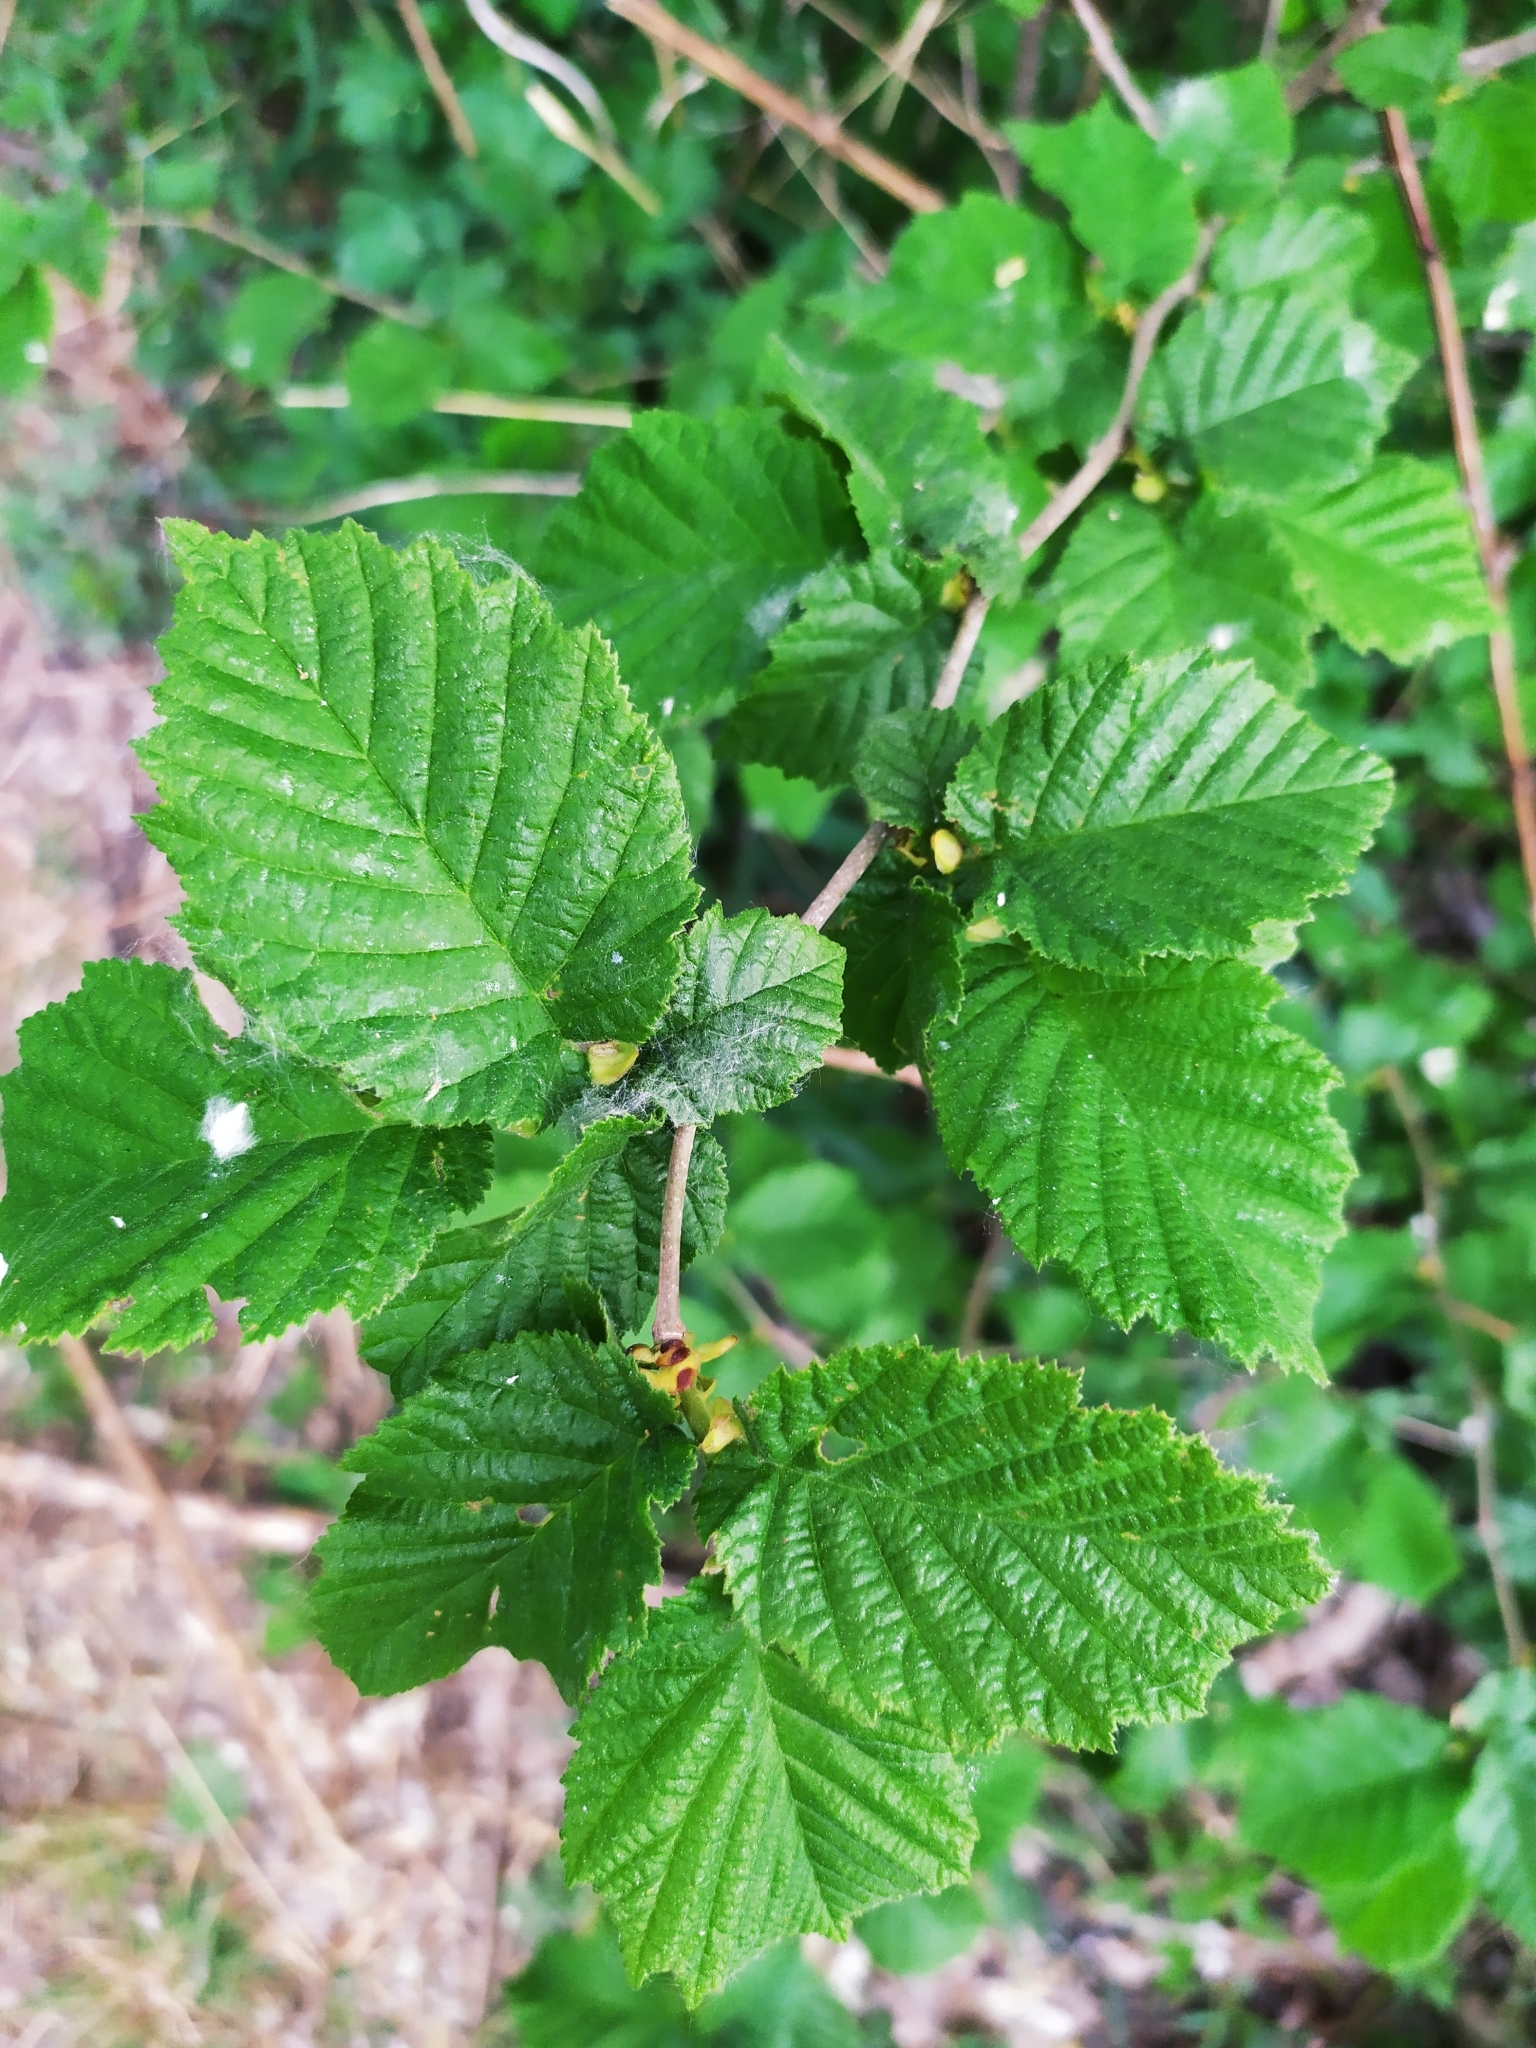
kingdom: Plantae
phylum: Tracheophyta
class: Magnoliopsida
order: Fagales
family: Betulaceae
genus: Corylus
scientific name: Corylus avellana
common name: European hazel
